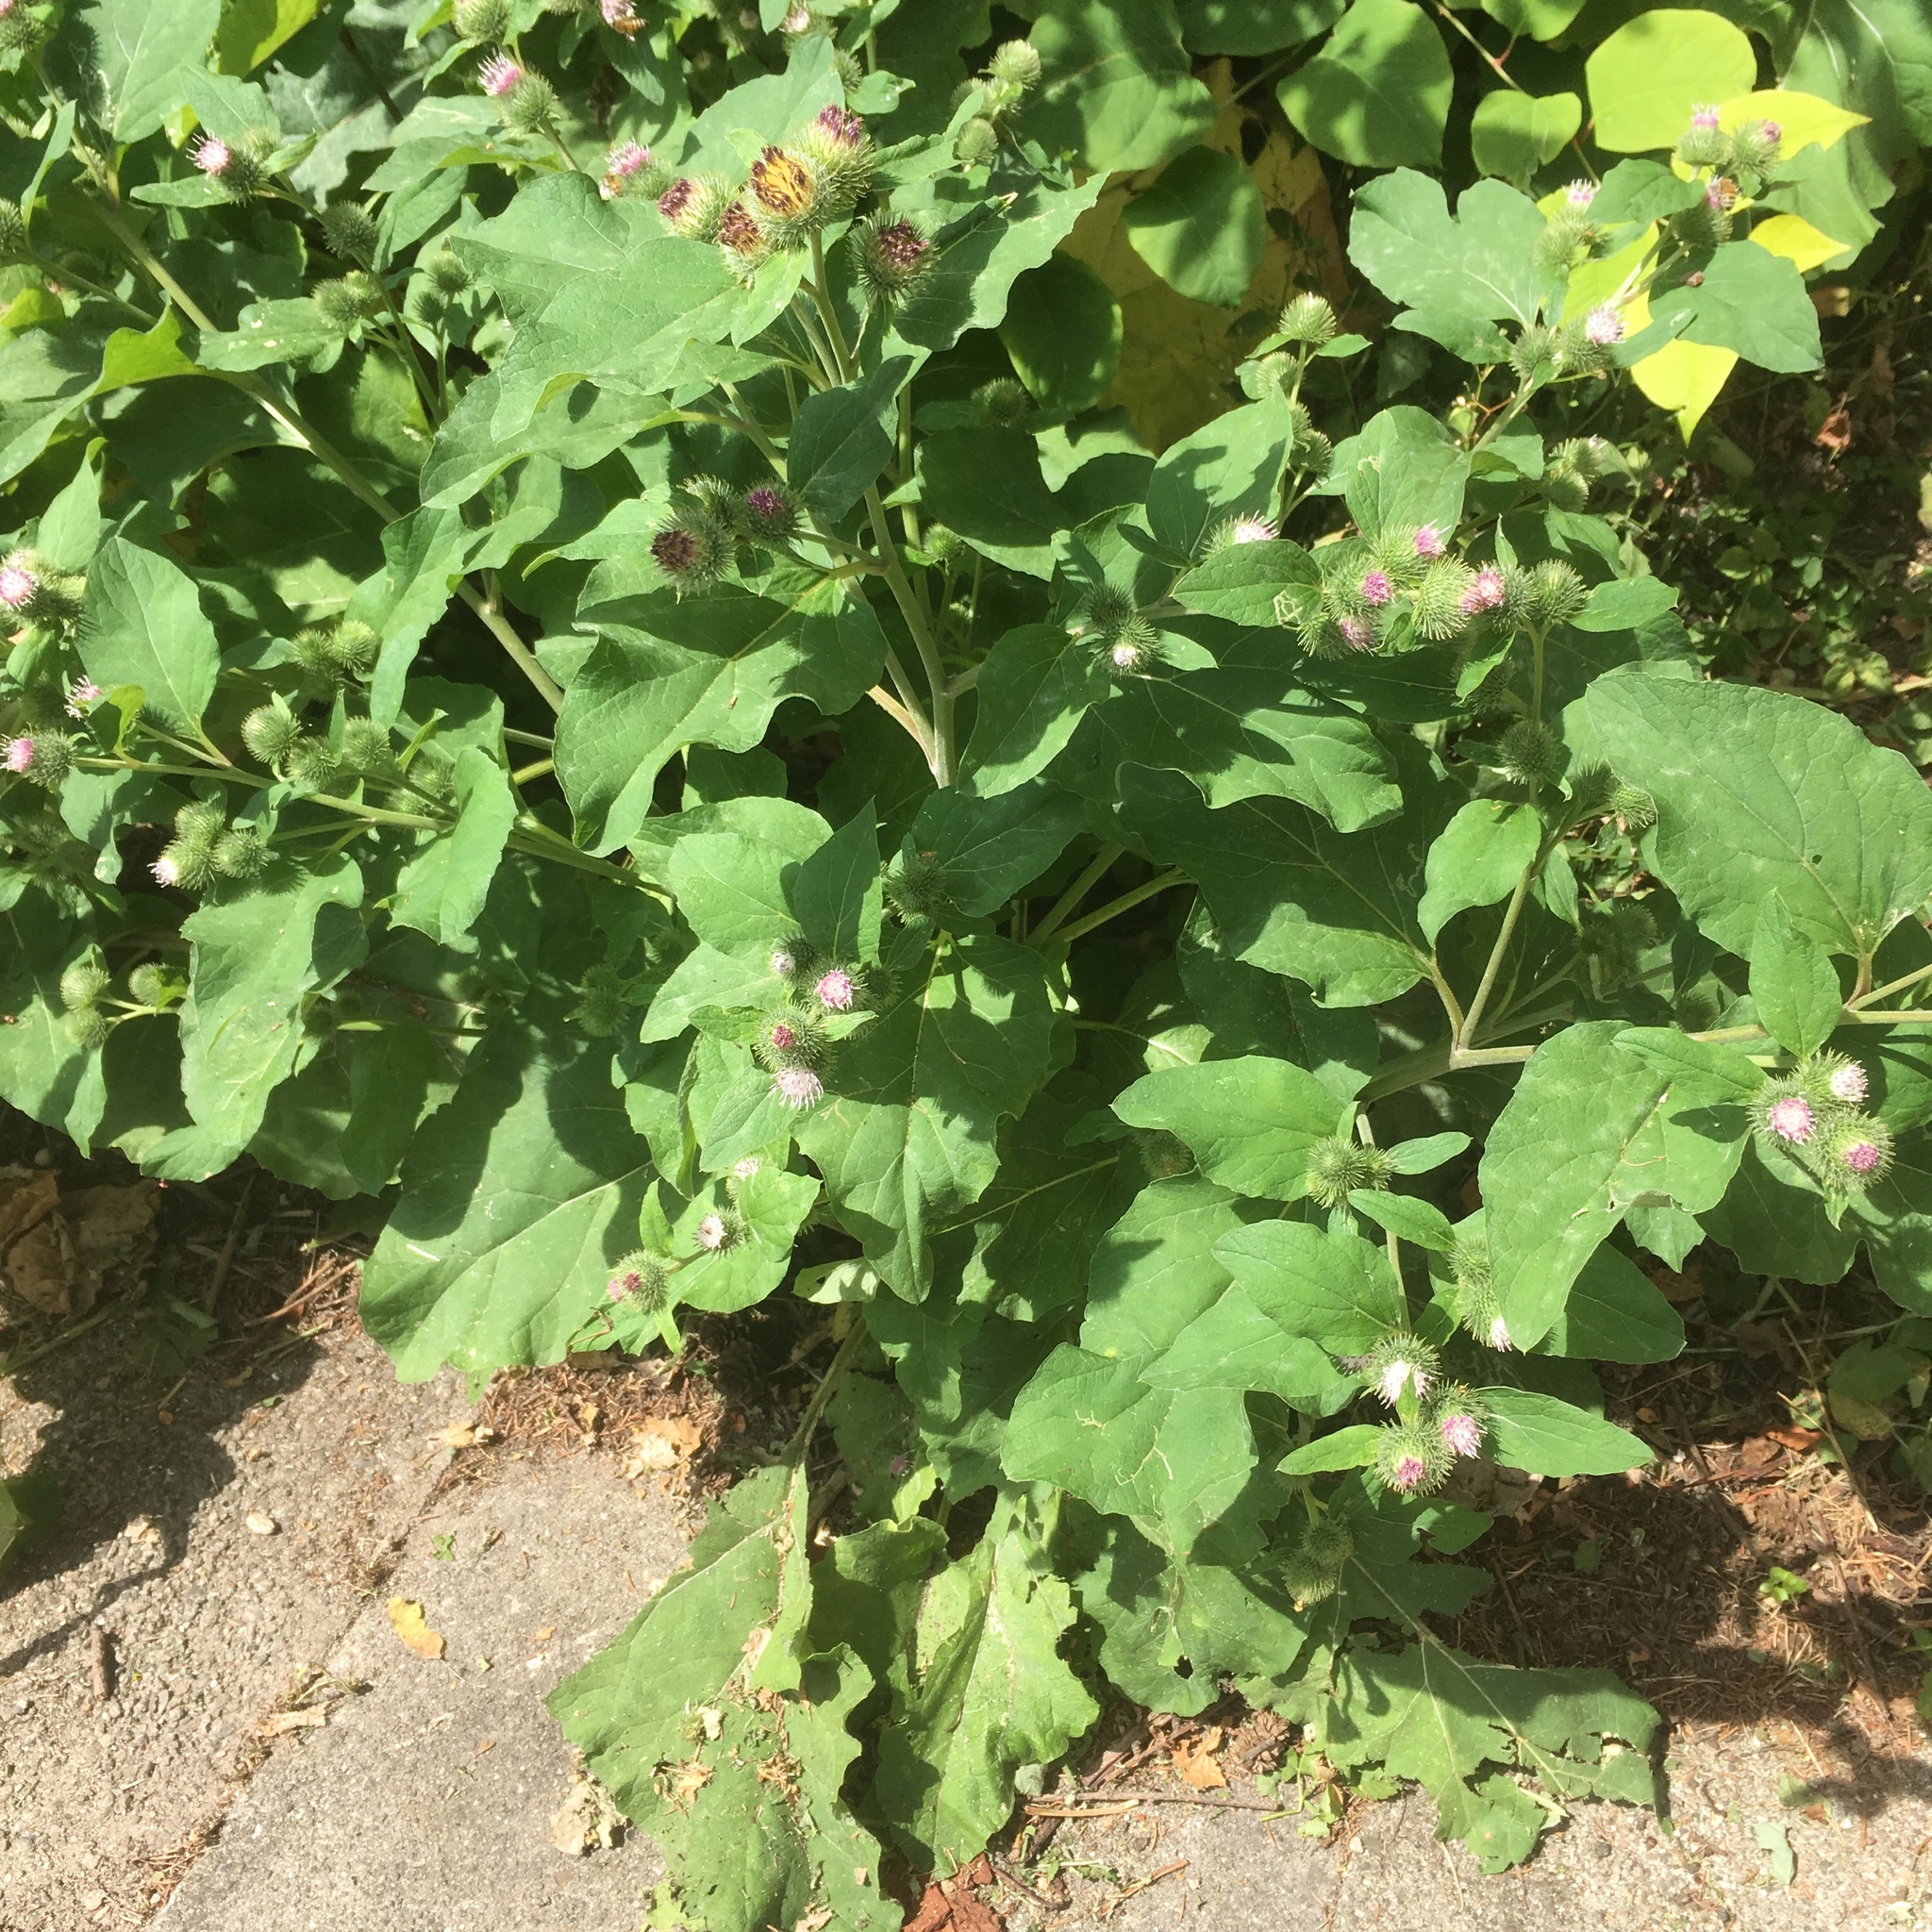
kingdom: Plantae
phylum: Tracheophyta
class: Magnoliopsida
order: Asterales
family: Asteraceae
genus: Arctium
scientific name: Arctium lappa
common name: Greater burdock
